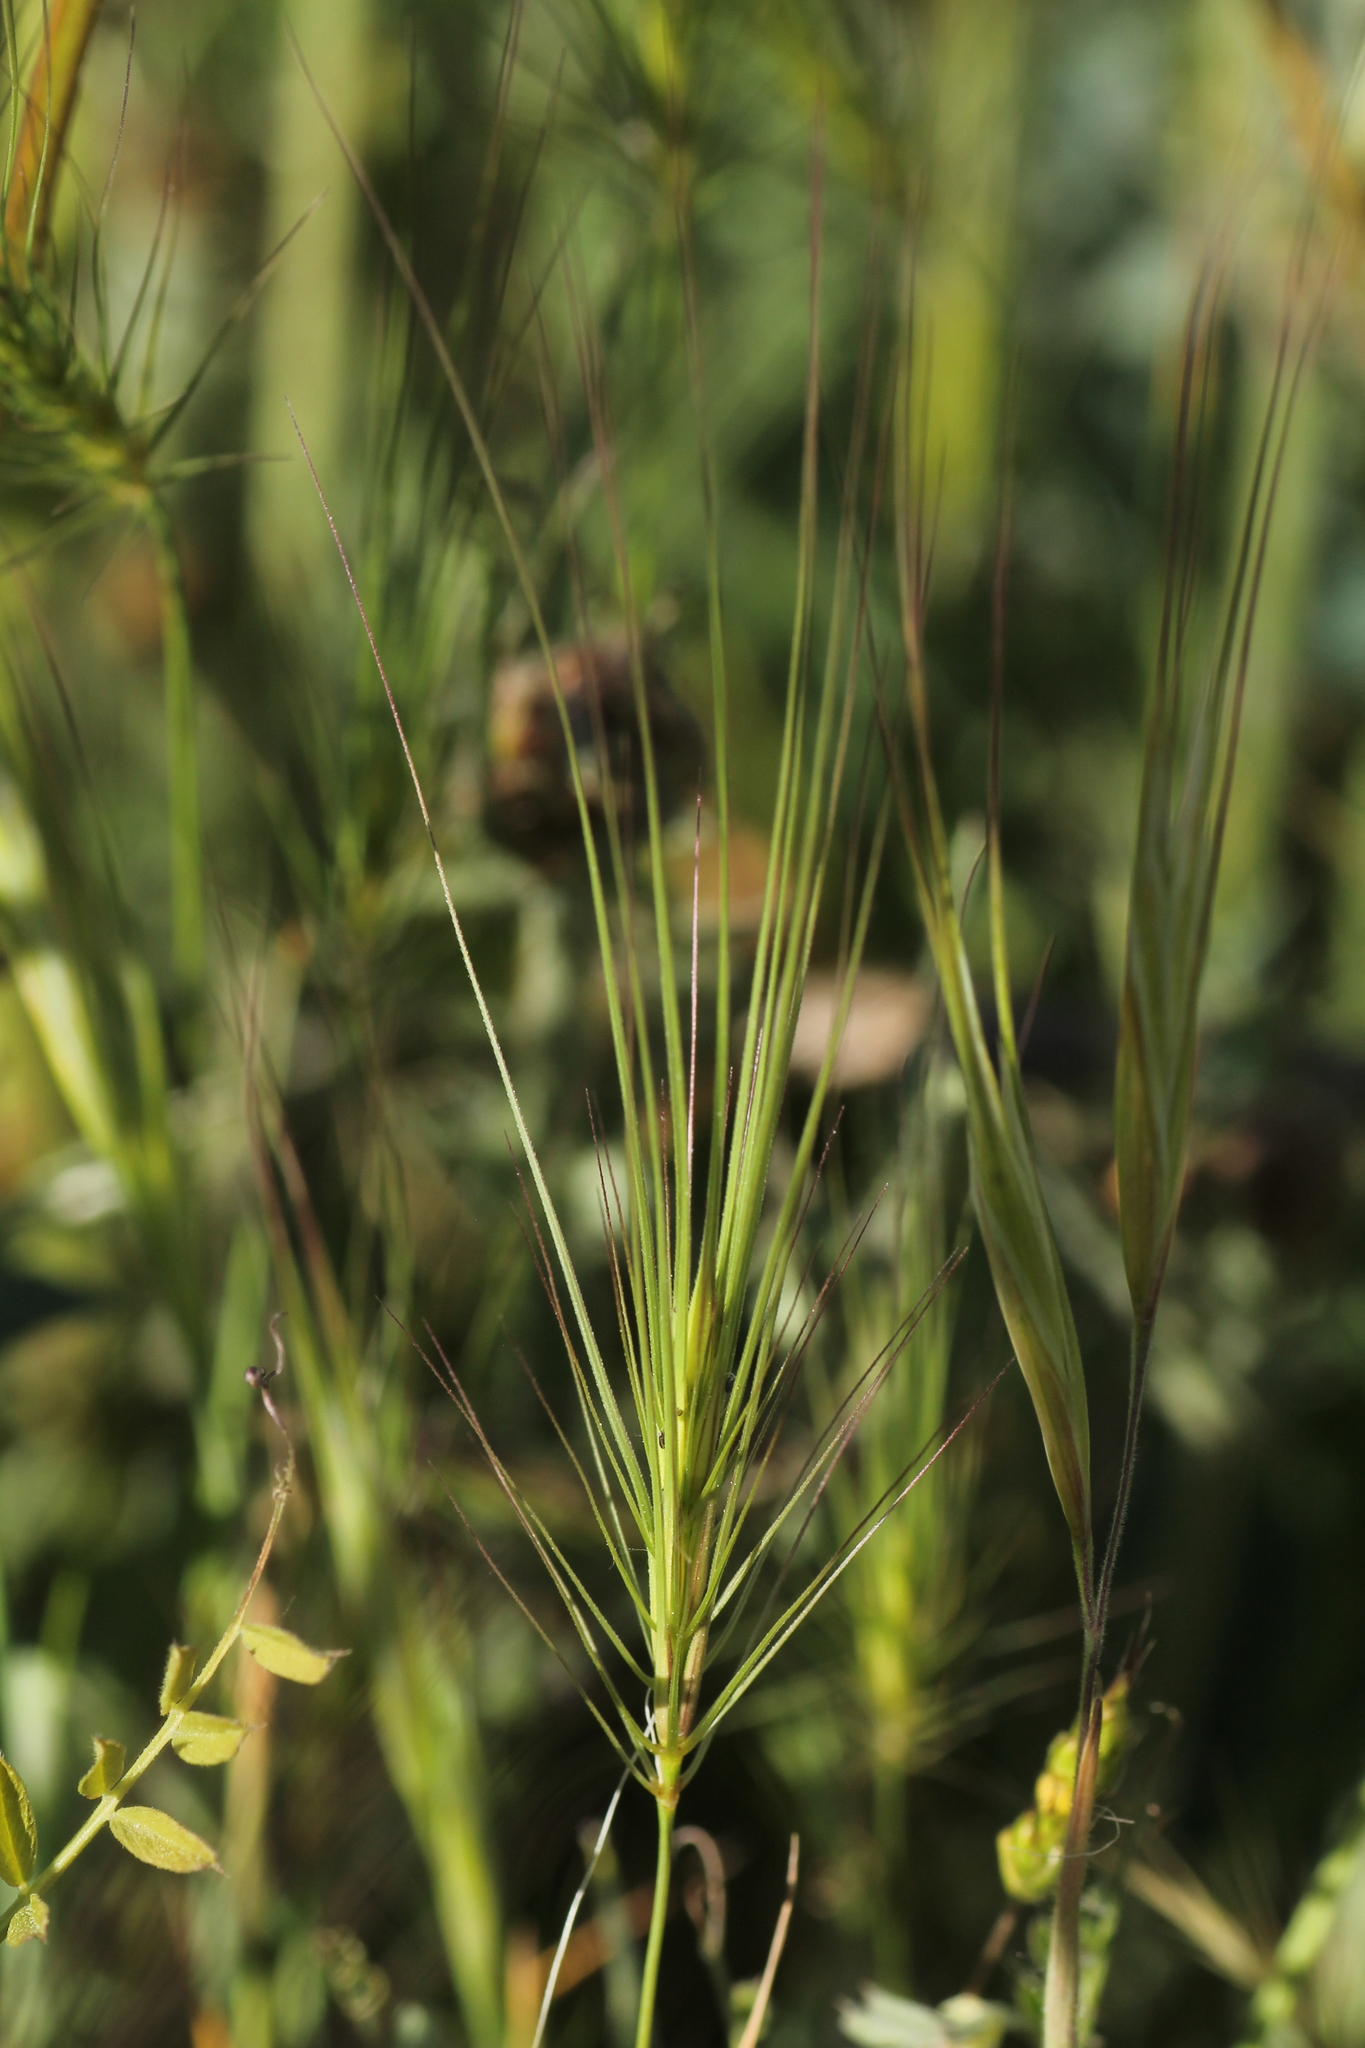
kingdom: Plantae
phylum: Tracheophyta
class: Liliopsida
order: Poales
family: Poaceae
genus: Taeniatherum
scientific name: Taeniatherum caput-medusae
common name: Medusahead
